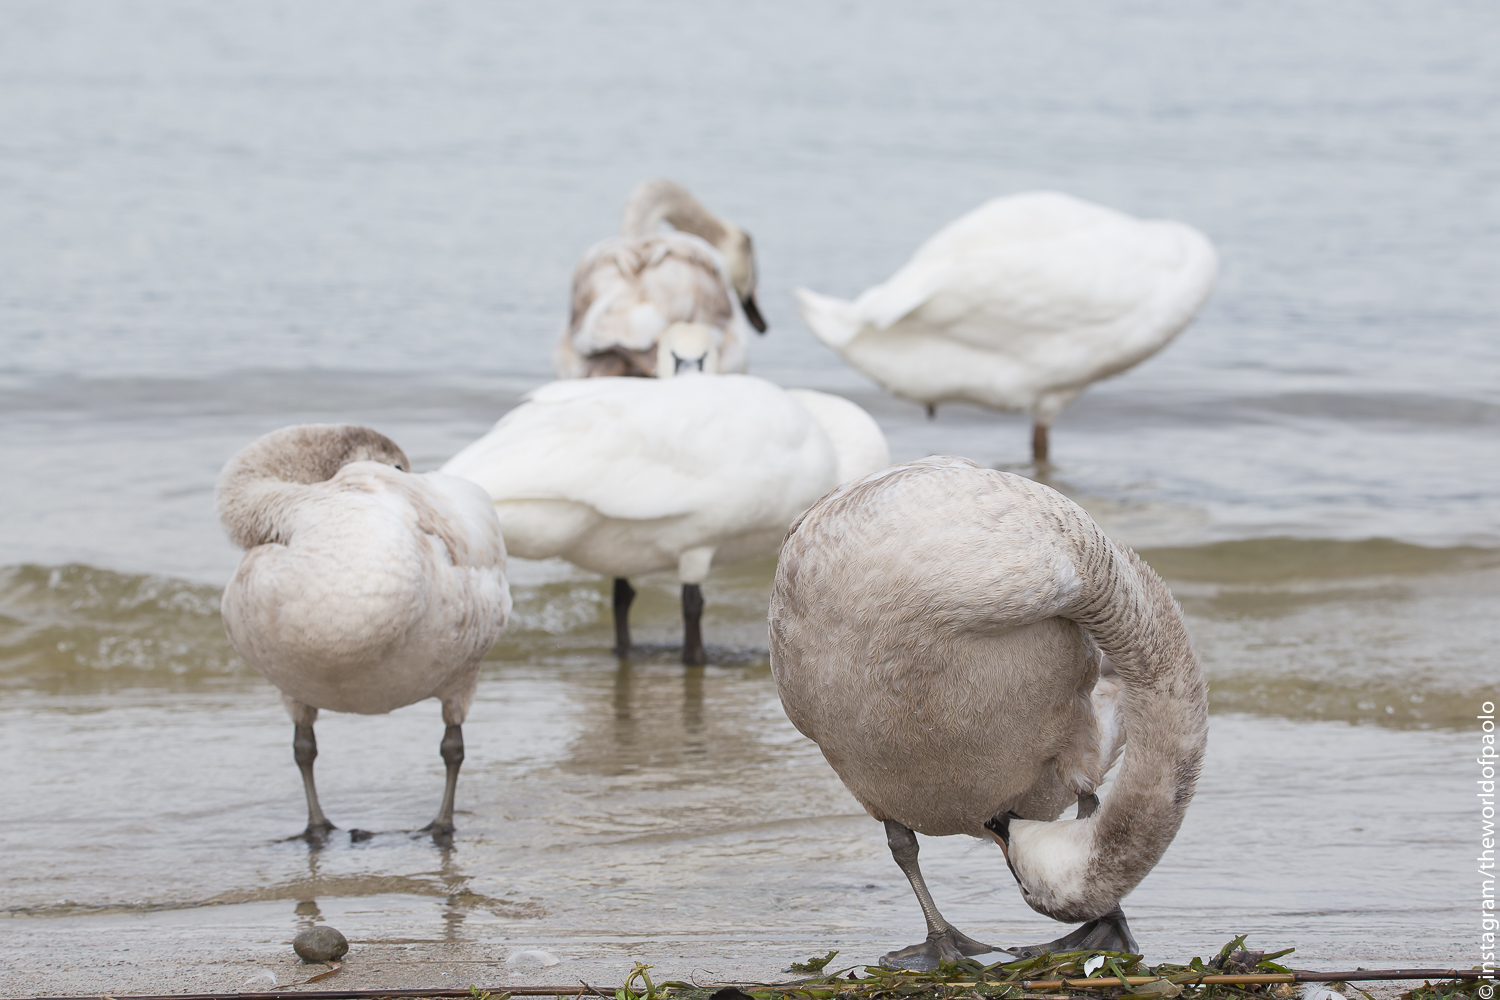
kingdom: Animalia
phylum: Chordata
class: Aves
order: Anseriformes
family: Anatidae
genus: Cygnus
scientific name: Cygnus olor
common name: Mute swan
